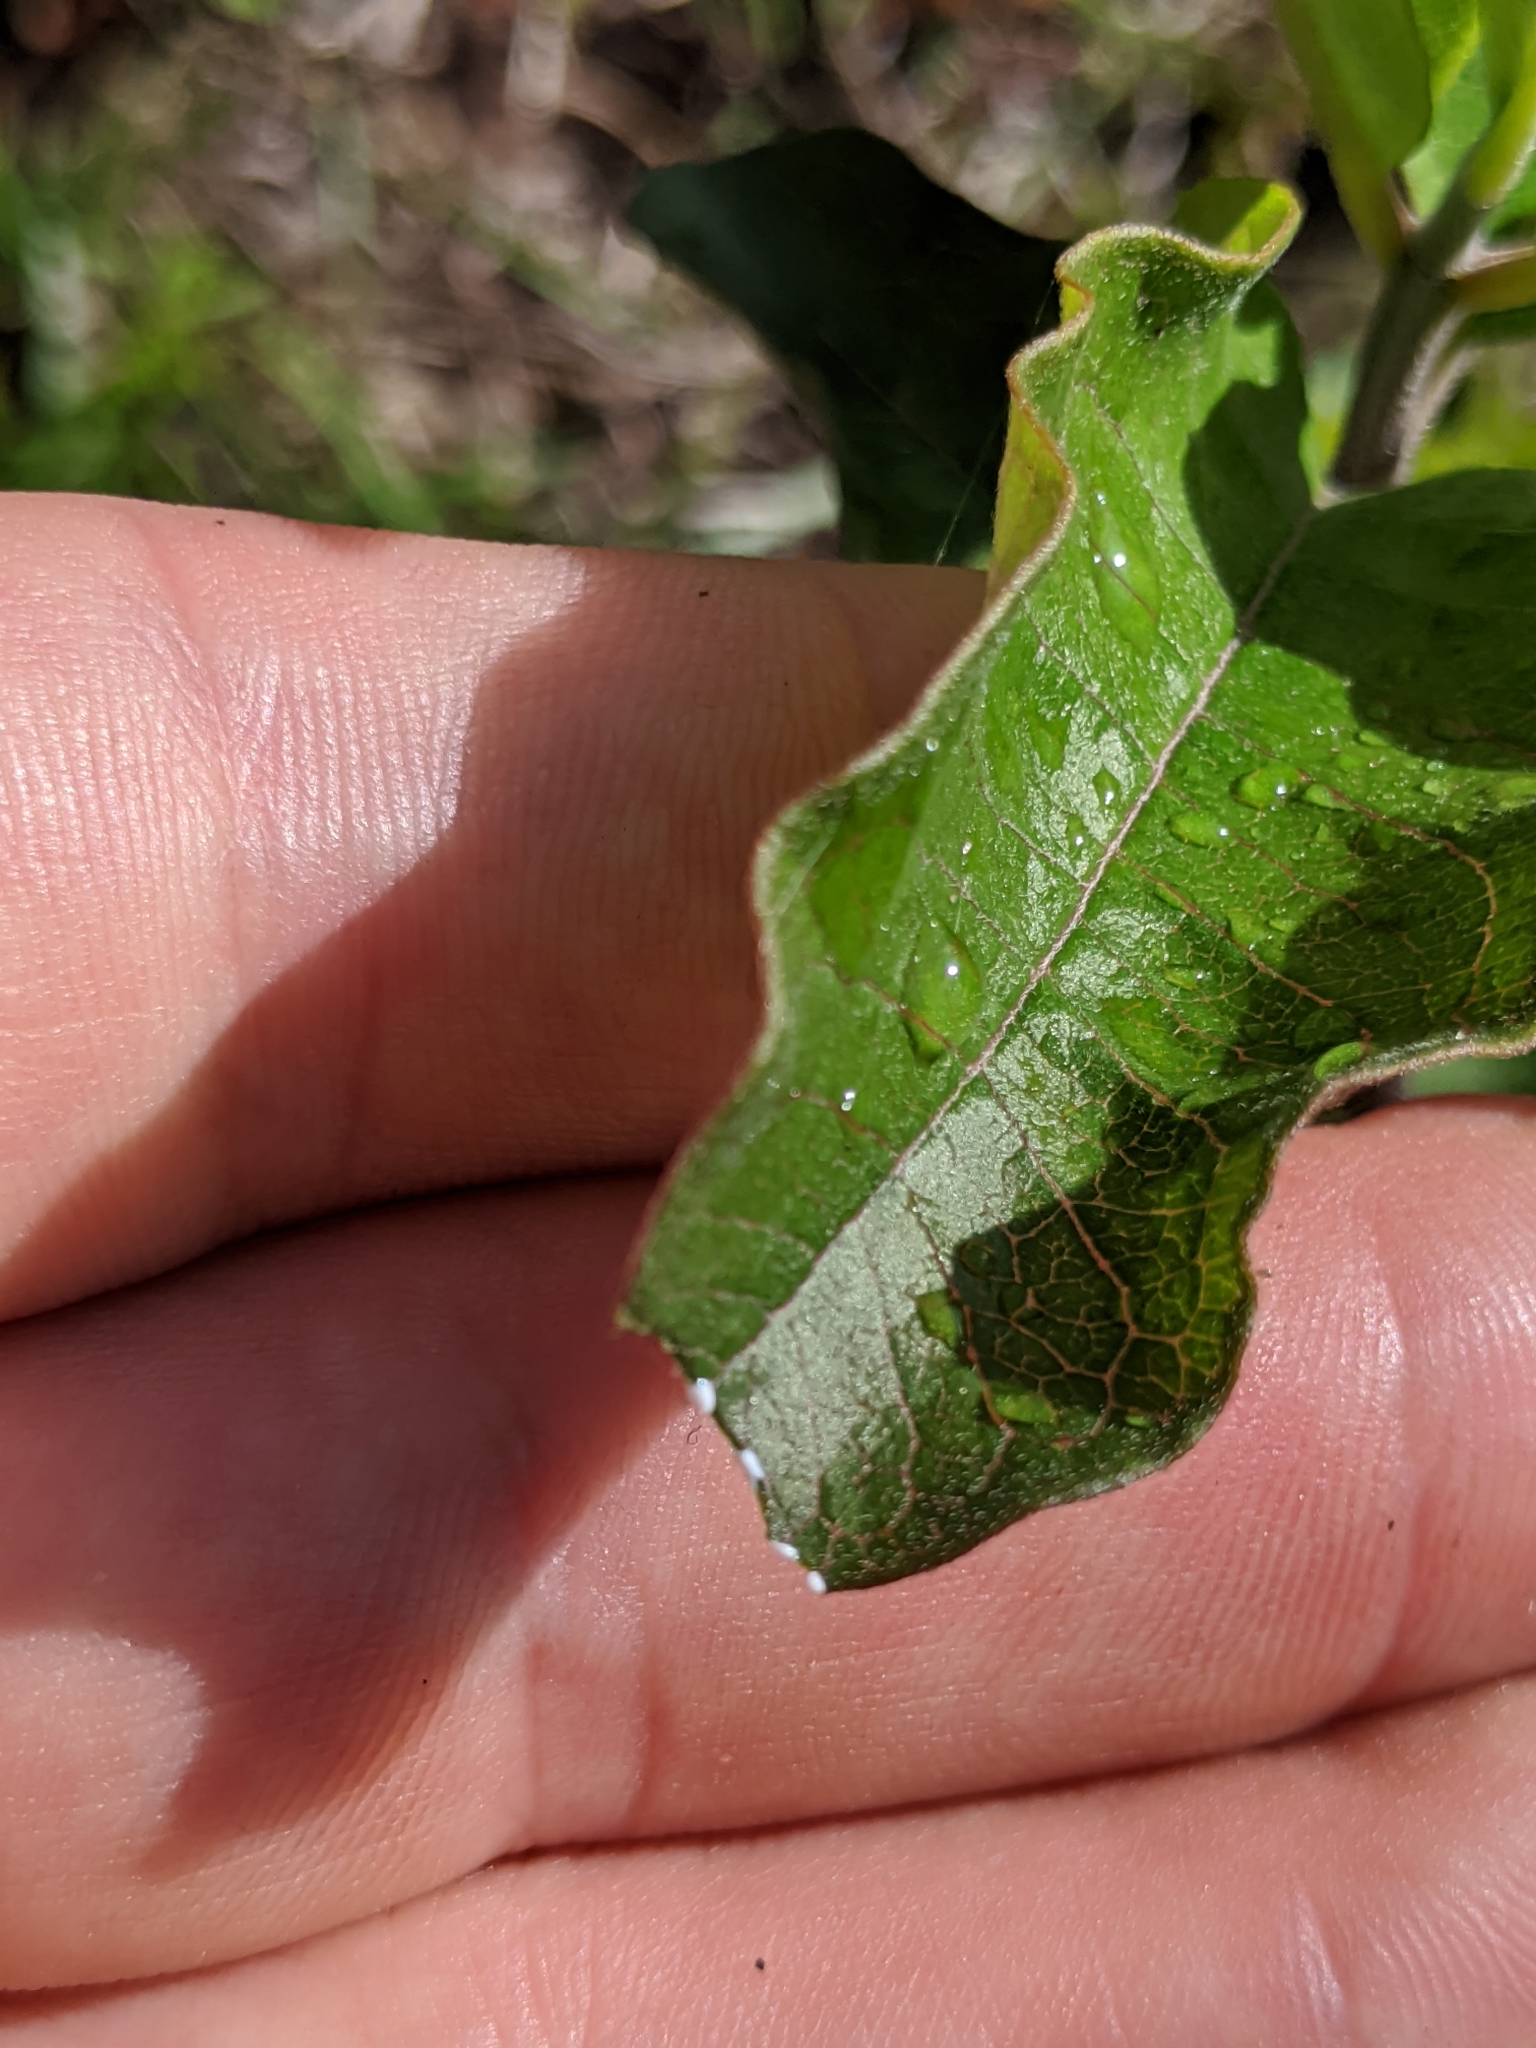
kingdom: Plantae
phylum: Tracheophyta
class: Magnoliopsida
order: Gentianales
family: Apocynaceae
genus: Asclepias
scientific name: Asclepias tomentosa
